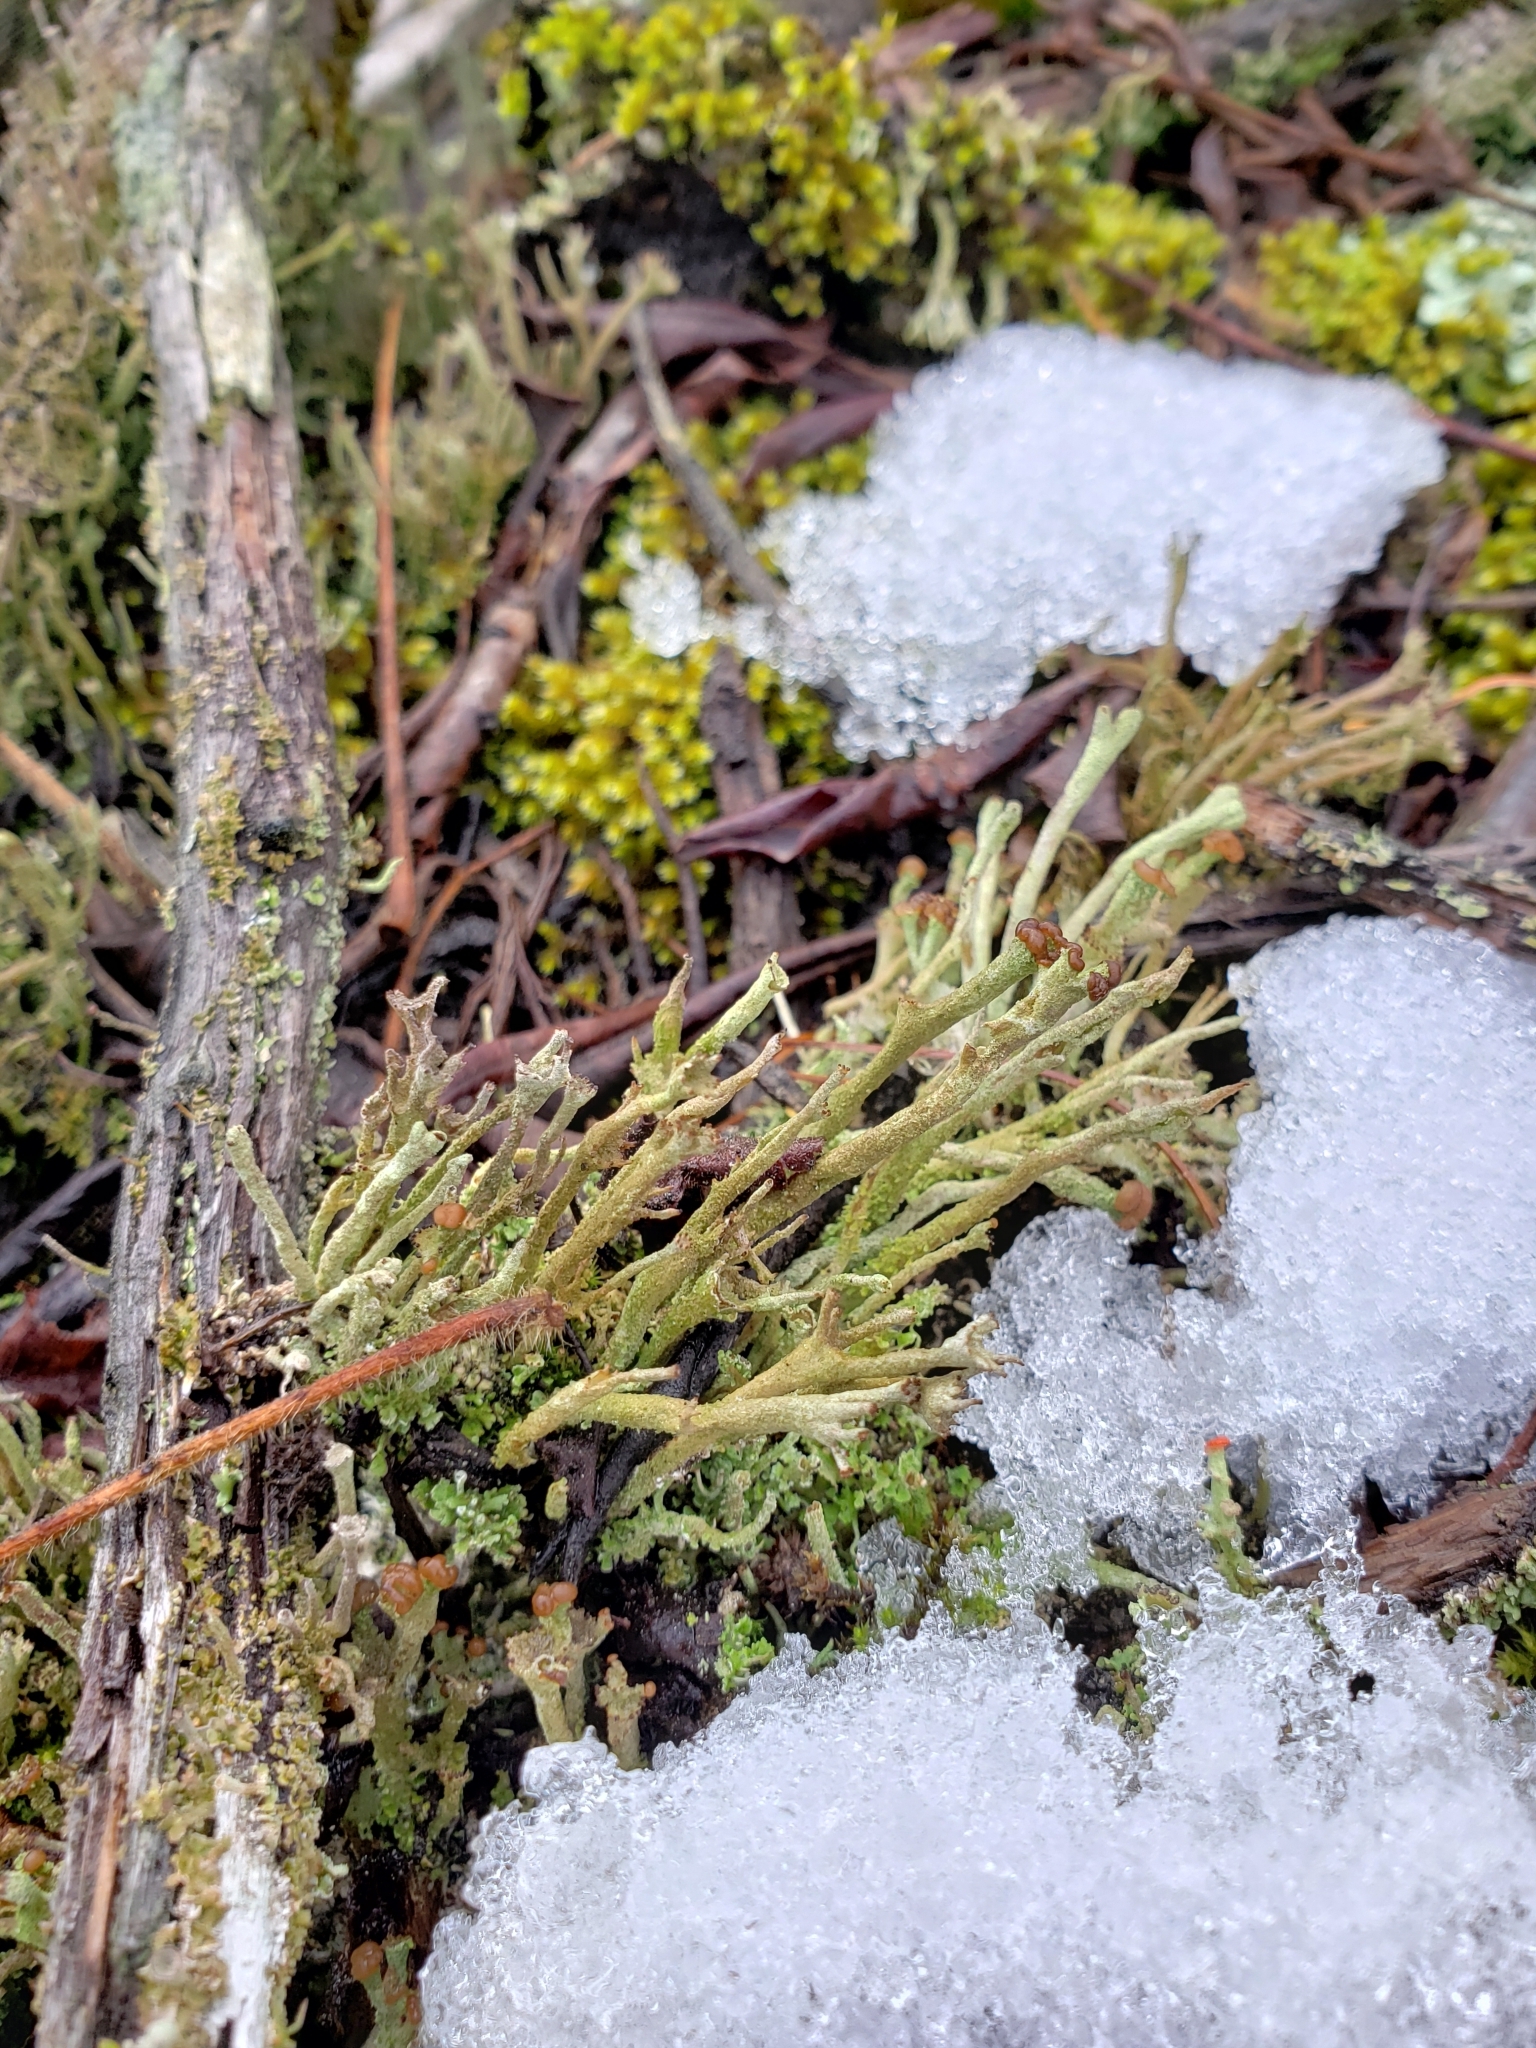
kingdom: Fungi
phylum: Ascomycota
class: Lecanoromycetes
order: Lecanorales
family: Cladoniaceae
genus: Cladonia
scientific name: Cladonia squamosa
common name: Dragon horn
